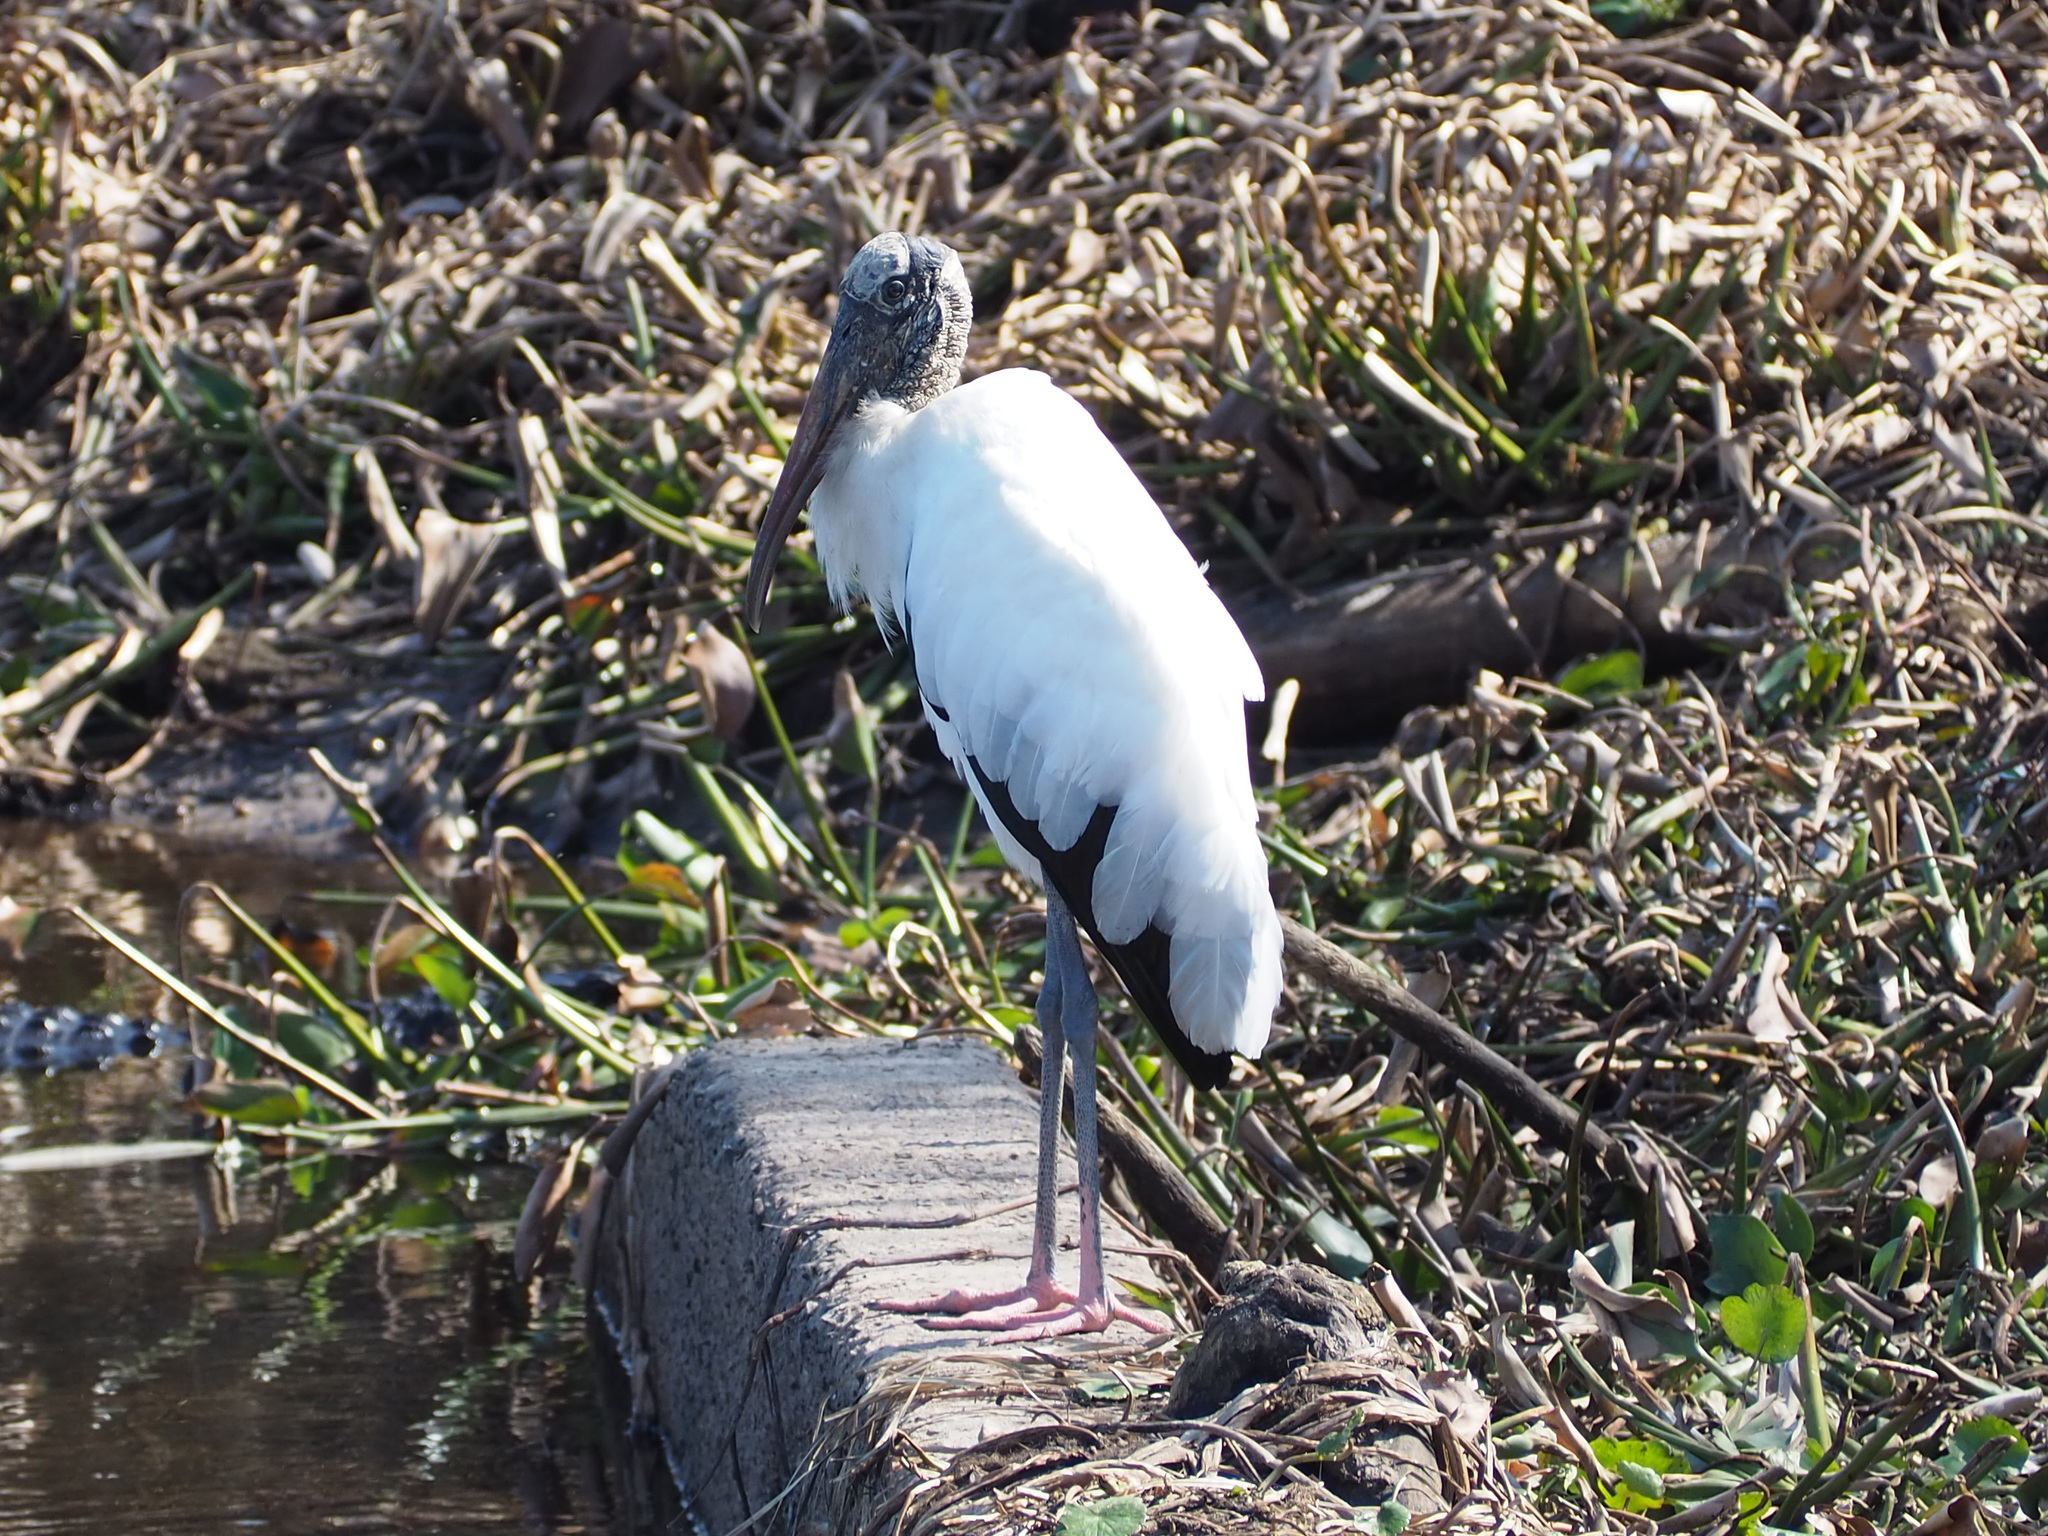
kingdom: Animalia
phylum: Chordata
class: Aves
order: Ciconiiformes
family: Ciconiidae
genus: Mycteria
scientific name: Mycteria americana
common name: Wood stork
